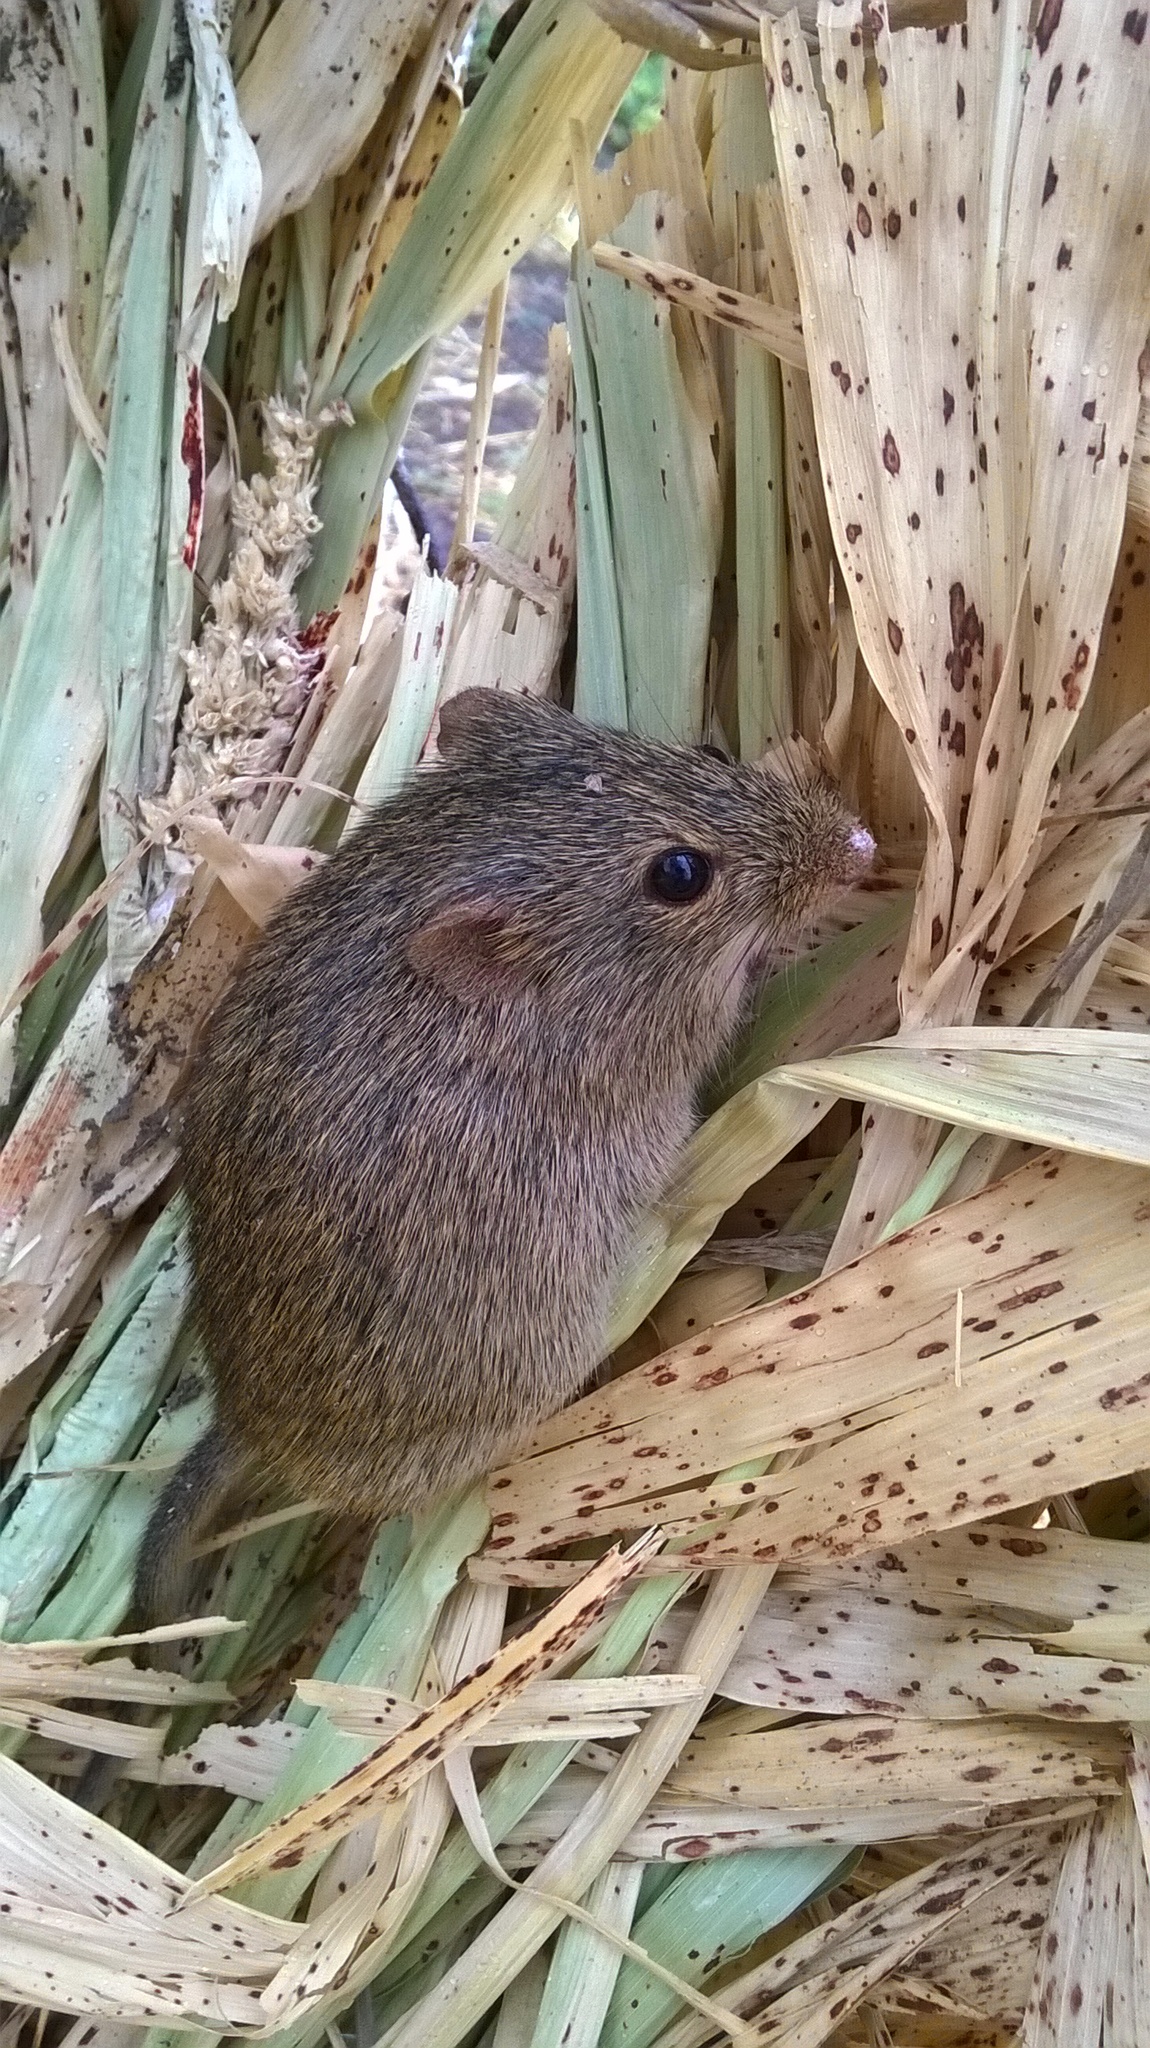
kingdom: Animalia
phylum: Chordata
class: Mammalia
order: Rodentia
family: Muridae
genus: Golunda
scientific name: Golunda ellioti
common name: Indian bush rat
